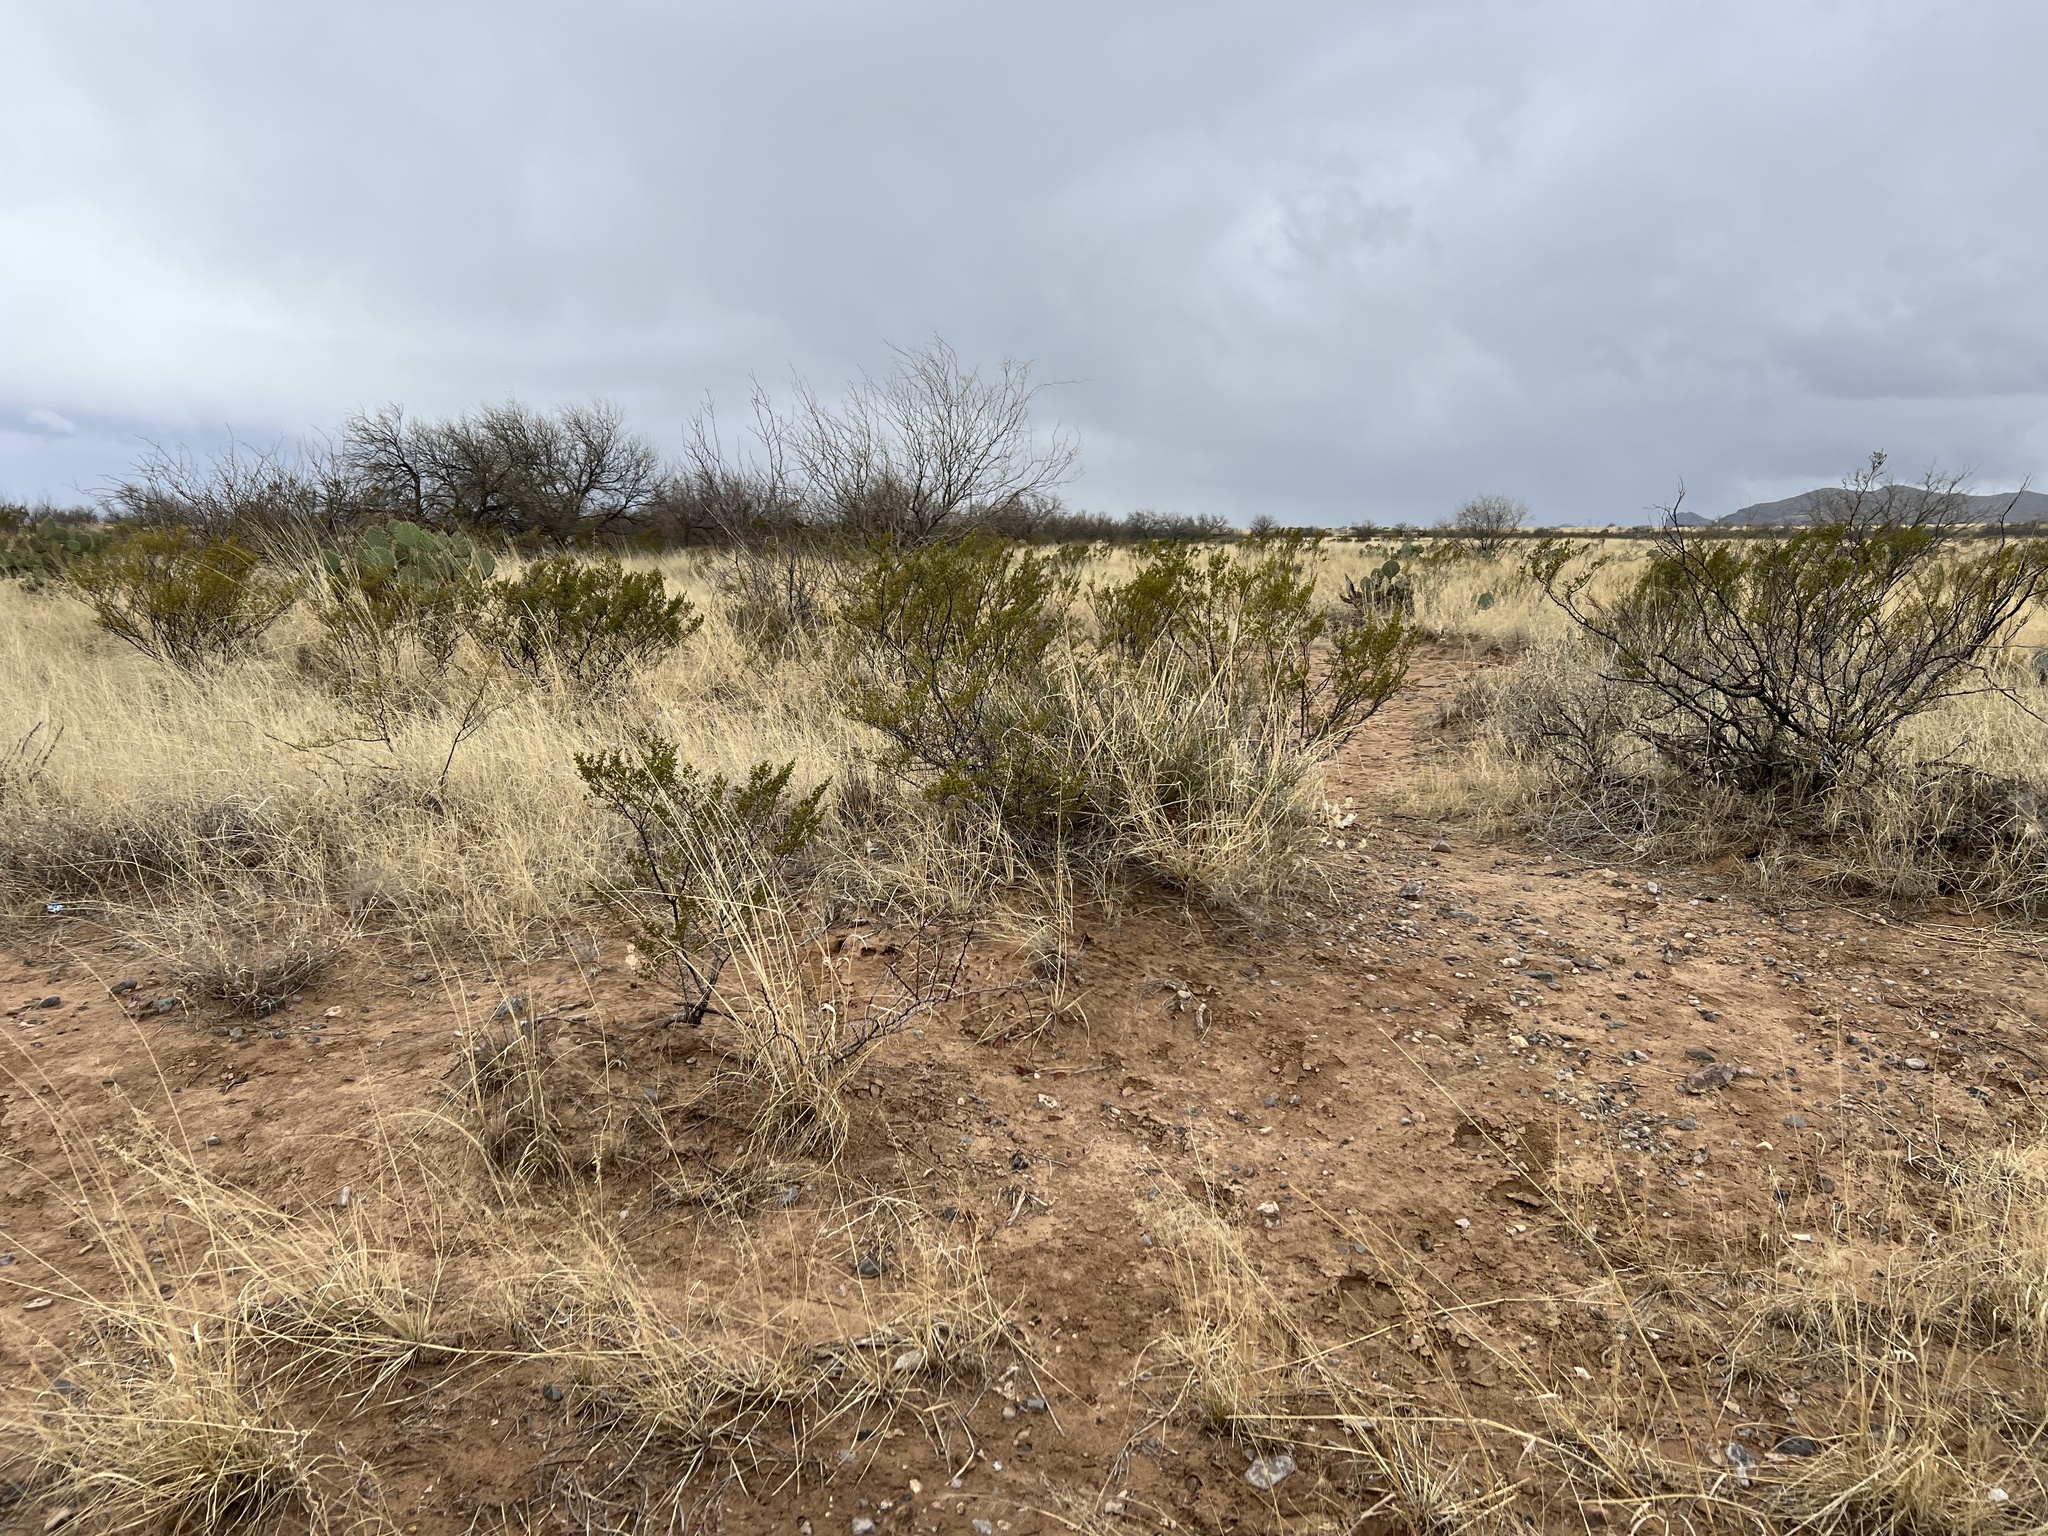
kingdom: Plantae
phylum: Tracheophyta
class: Magnoliopsida
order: Zygophyllales
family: Zygophyllaceae
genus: Larrea
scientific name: Larrea tridentata
